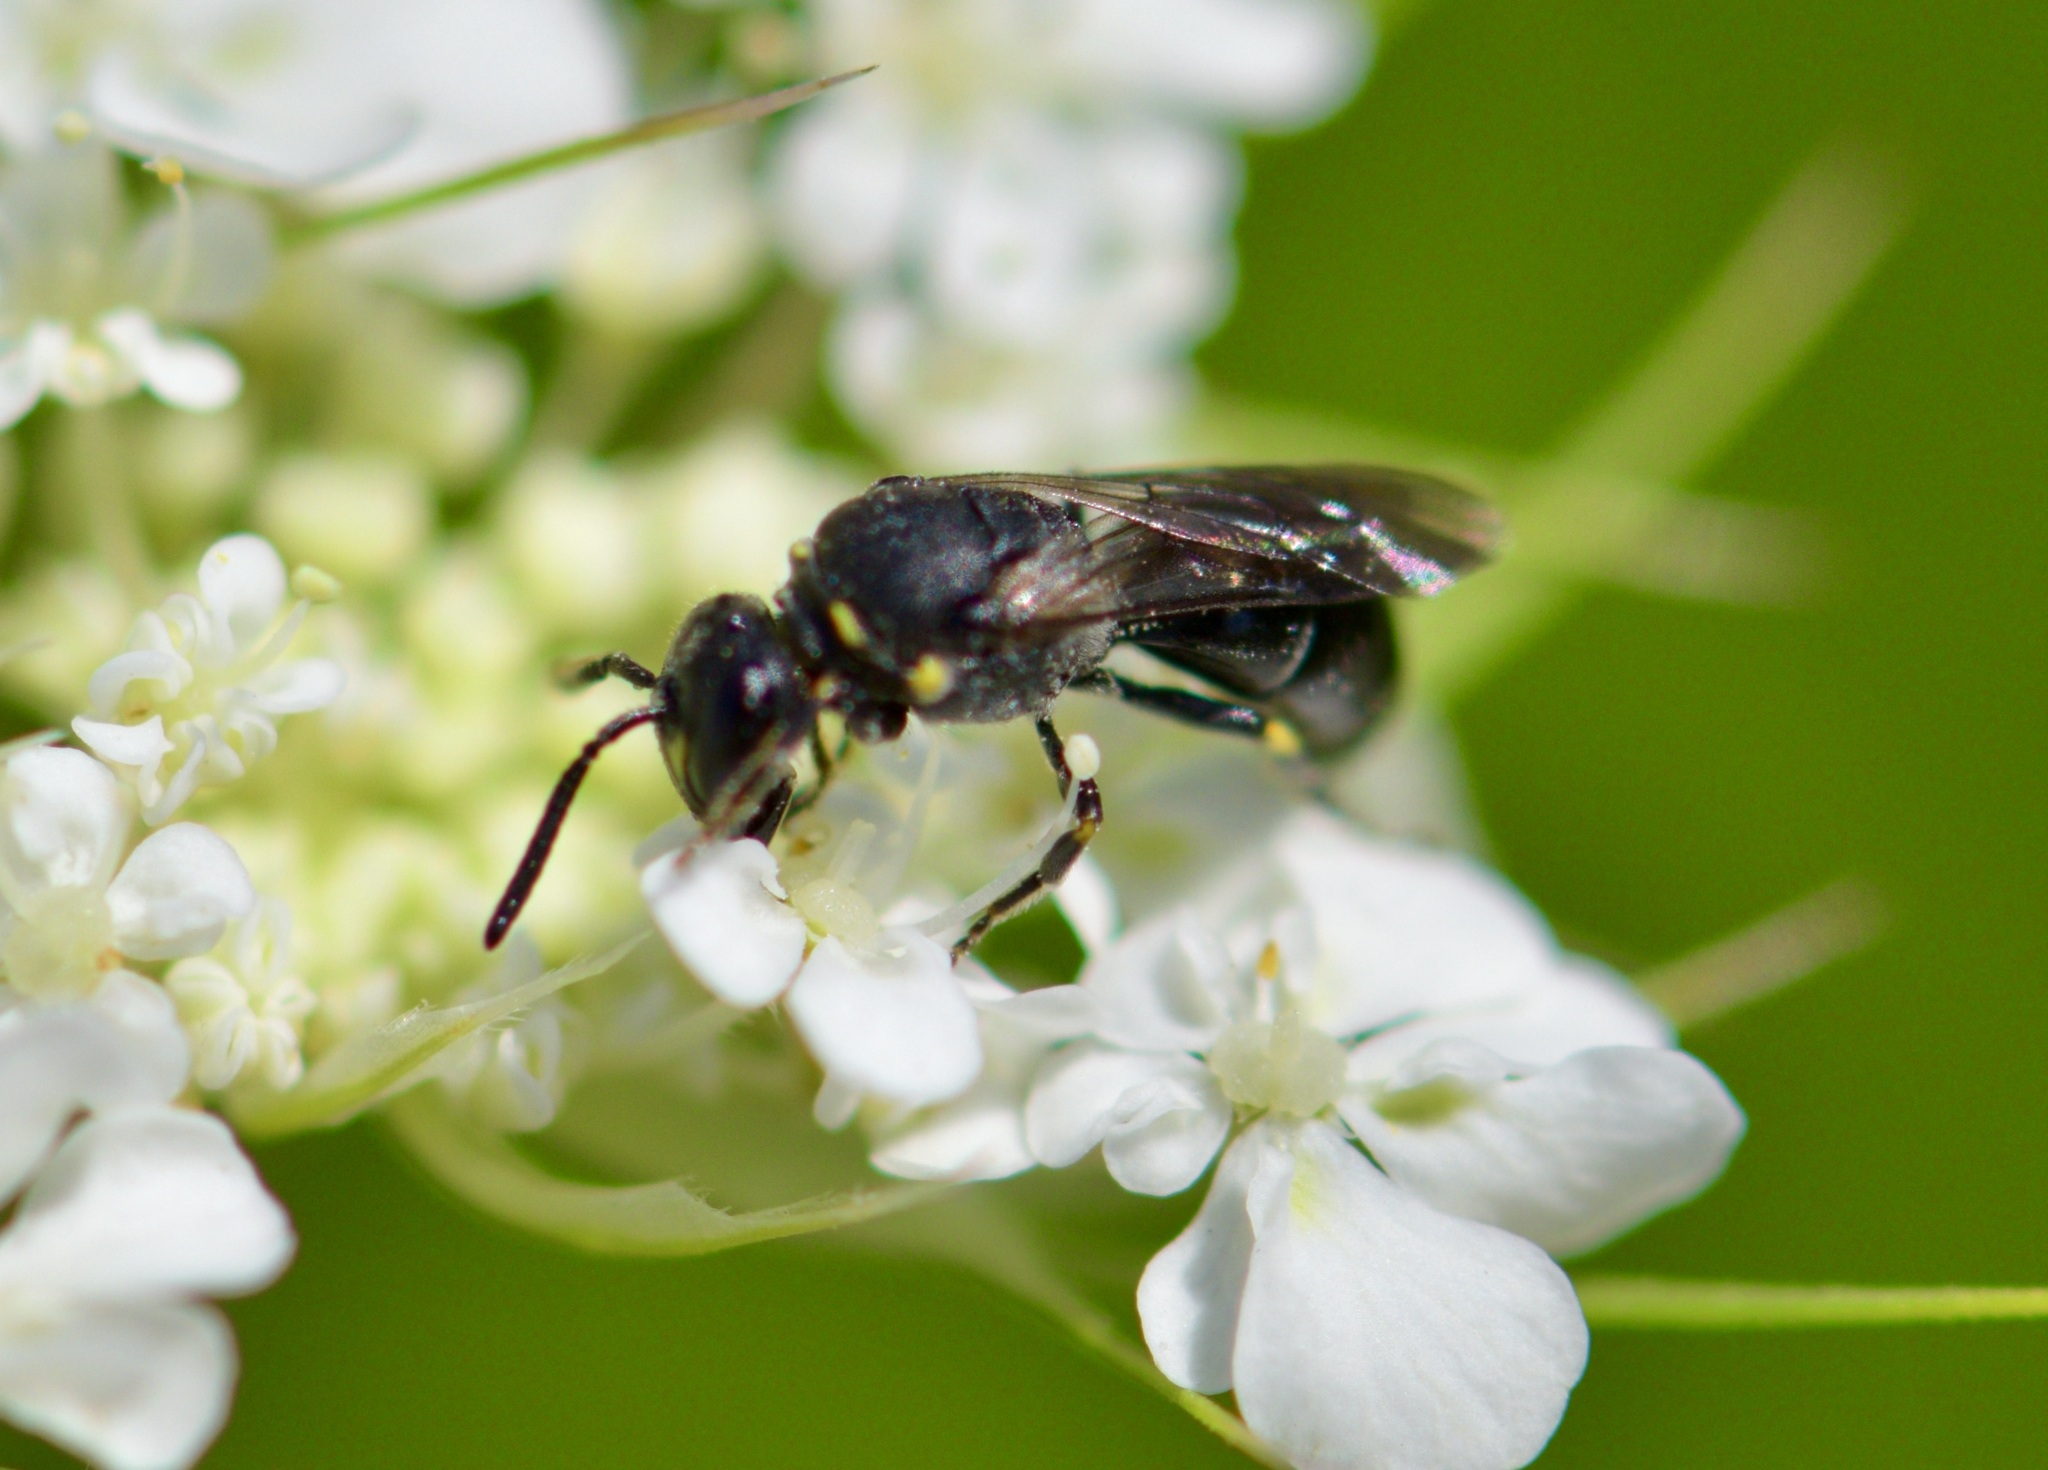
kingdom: Animalia
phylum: Arthropoda
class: Insecta
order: Hymenoptera
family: Colletidae
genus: Hylaeus
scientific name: Hylaeus modestus
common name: Yellow-faced bee
